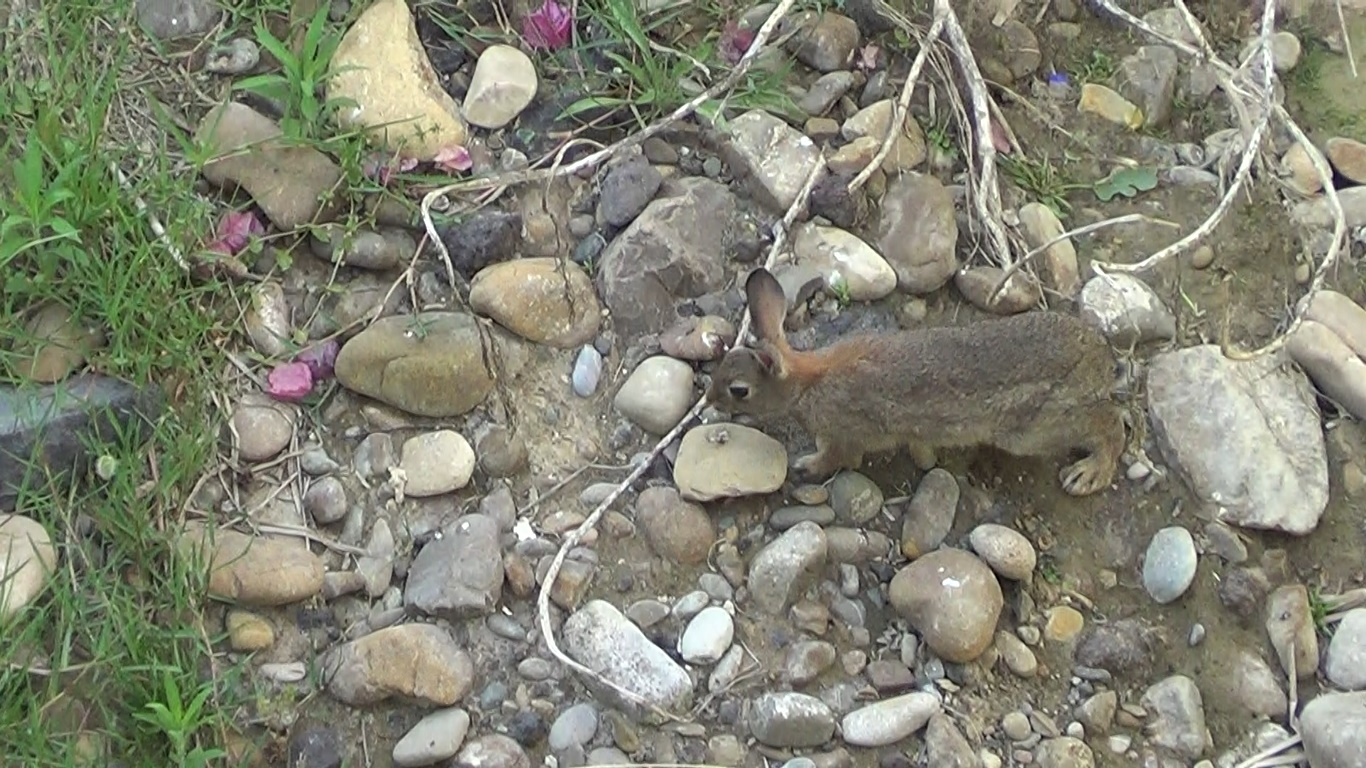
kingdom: Animalia
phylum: Chordata
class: Mammalia
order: Lagomorpha
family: Leporidae
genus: Oryctolagus
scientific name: Oryctolagus cuniculus
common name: European rabbit
